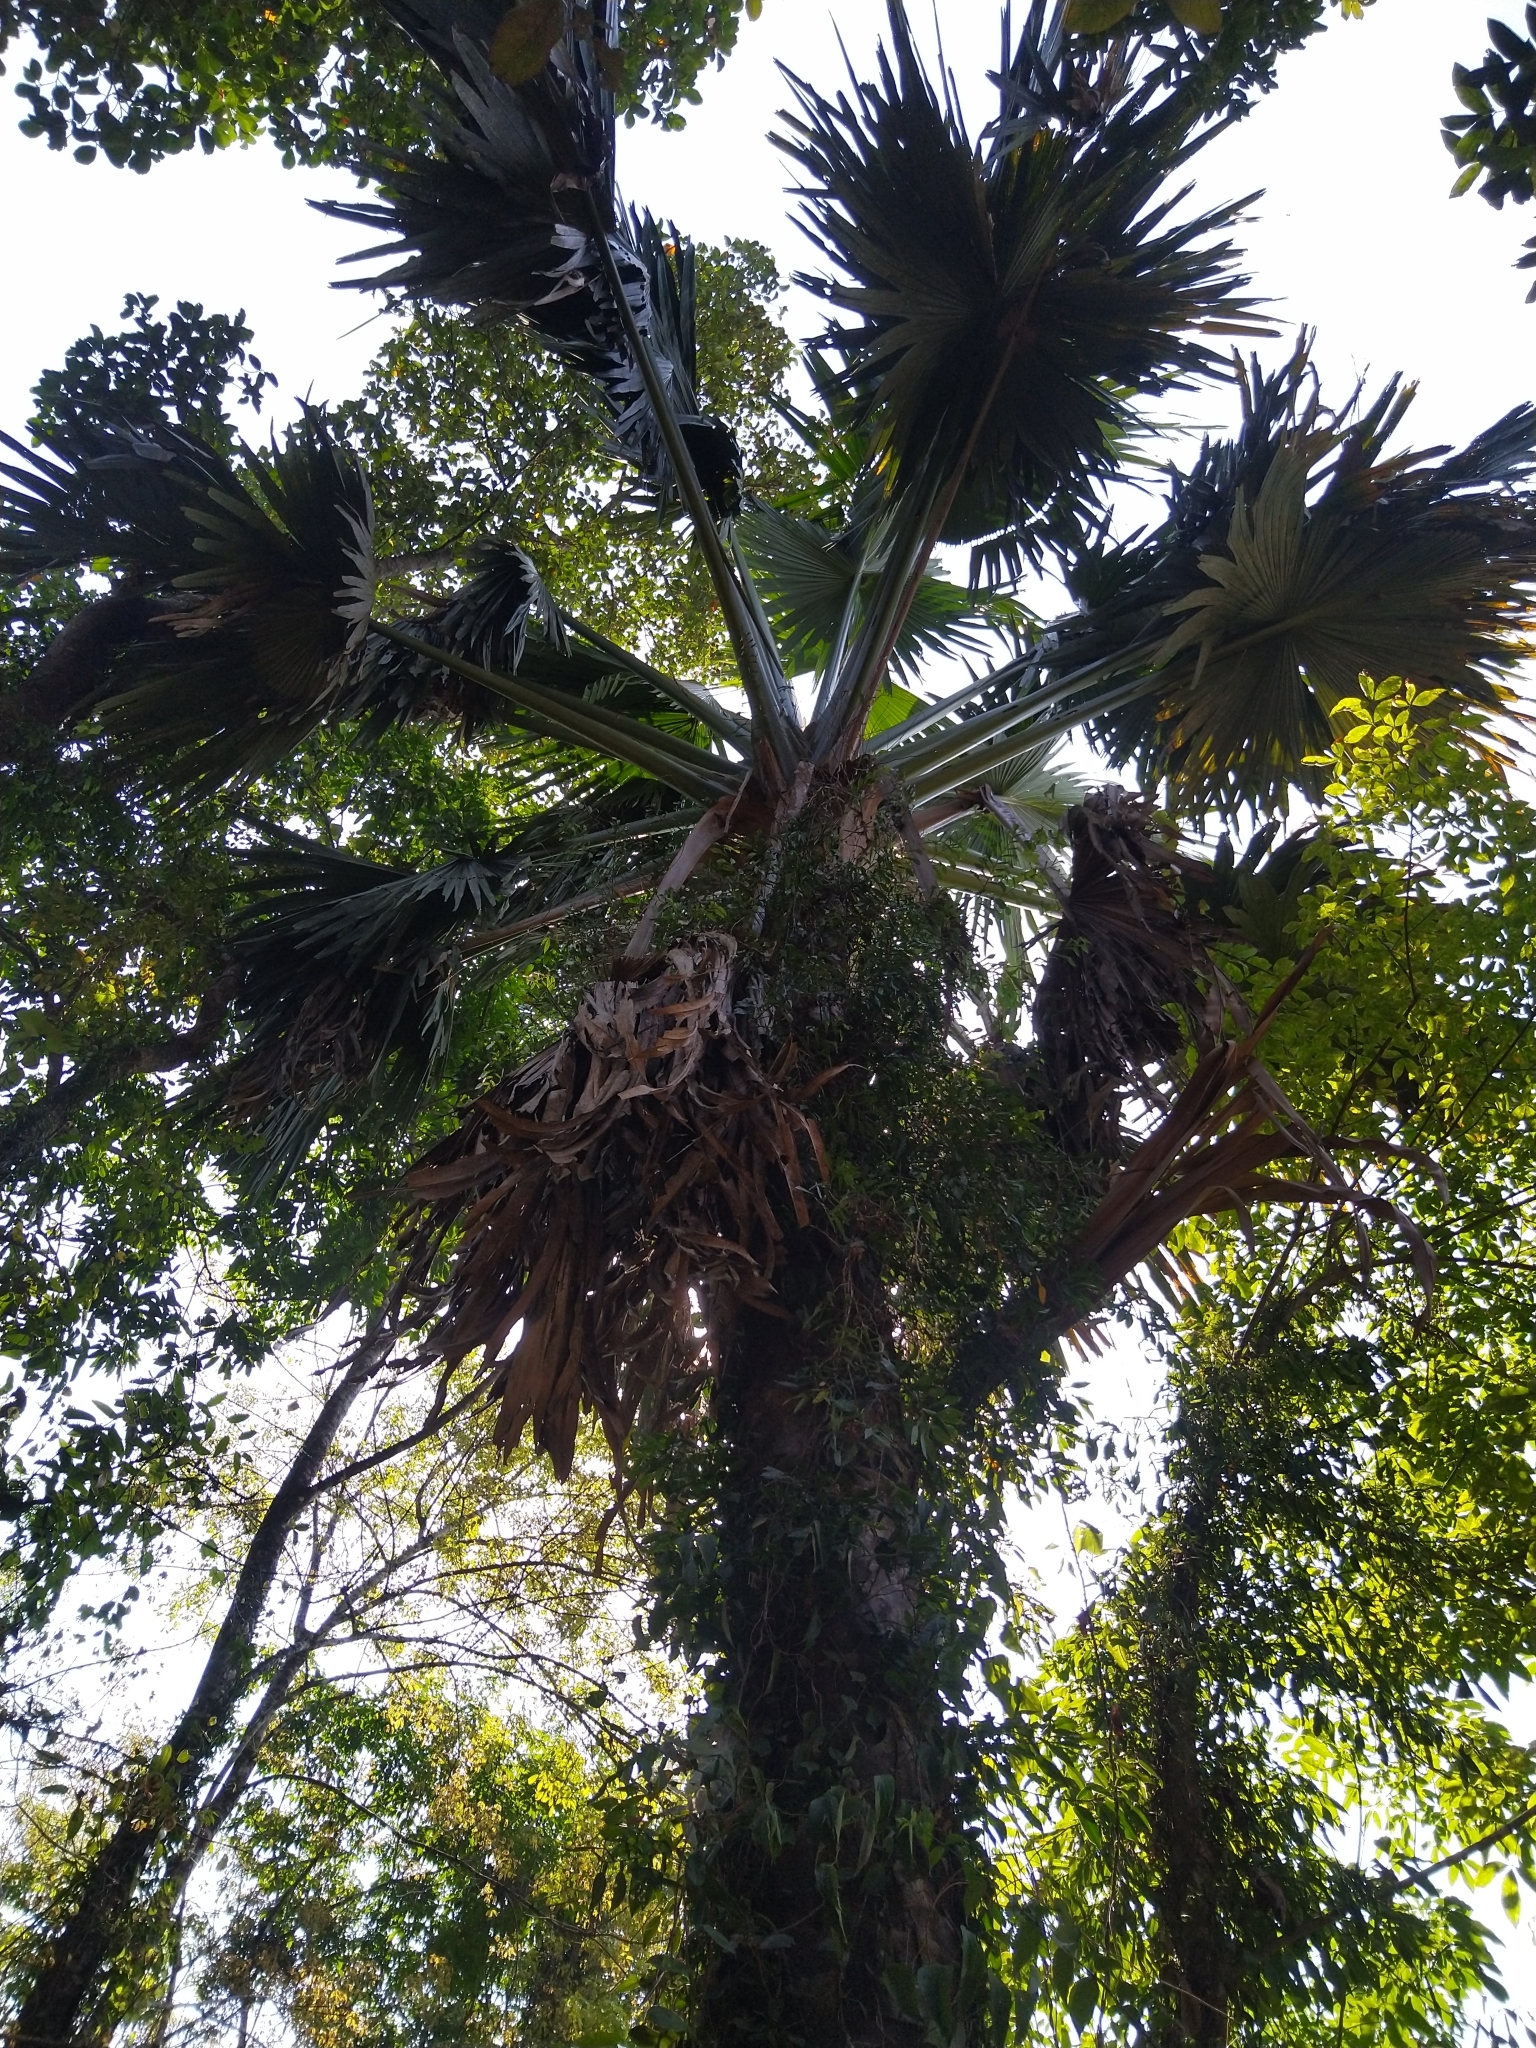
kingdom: Plantae
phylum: Tracheophyta
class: Liliopsida
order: Arecales
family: Arecaceae
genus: Corypha
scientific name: Corypha umbraculifera
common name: Talipot palm
